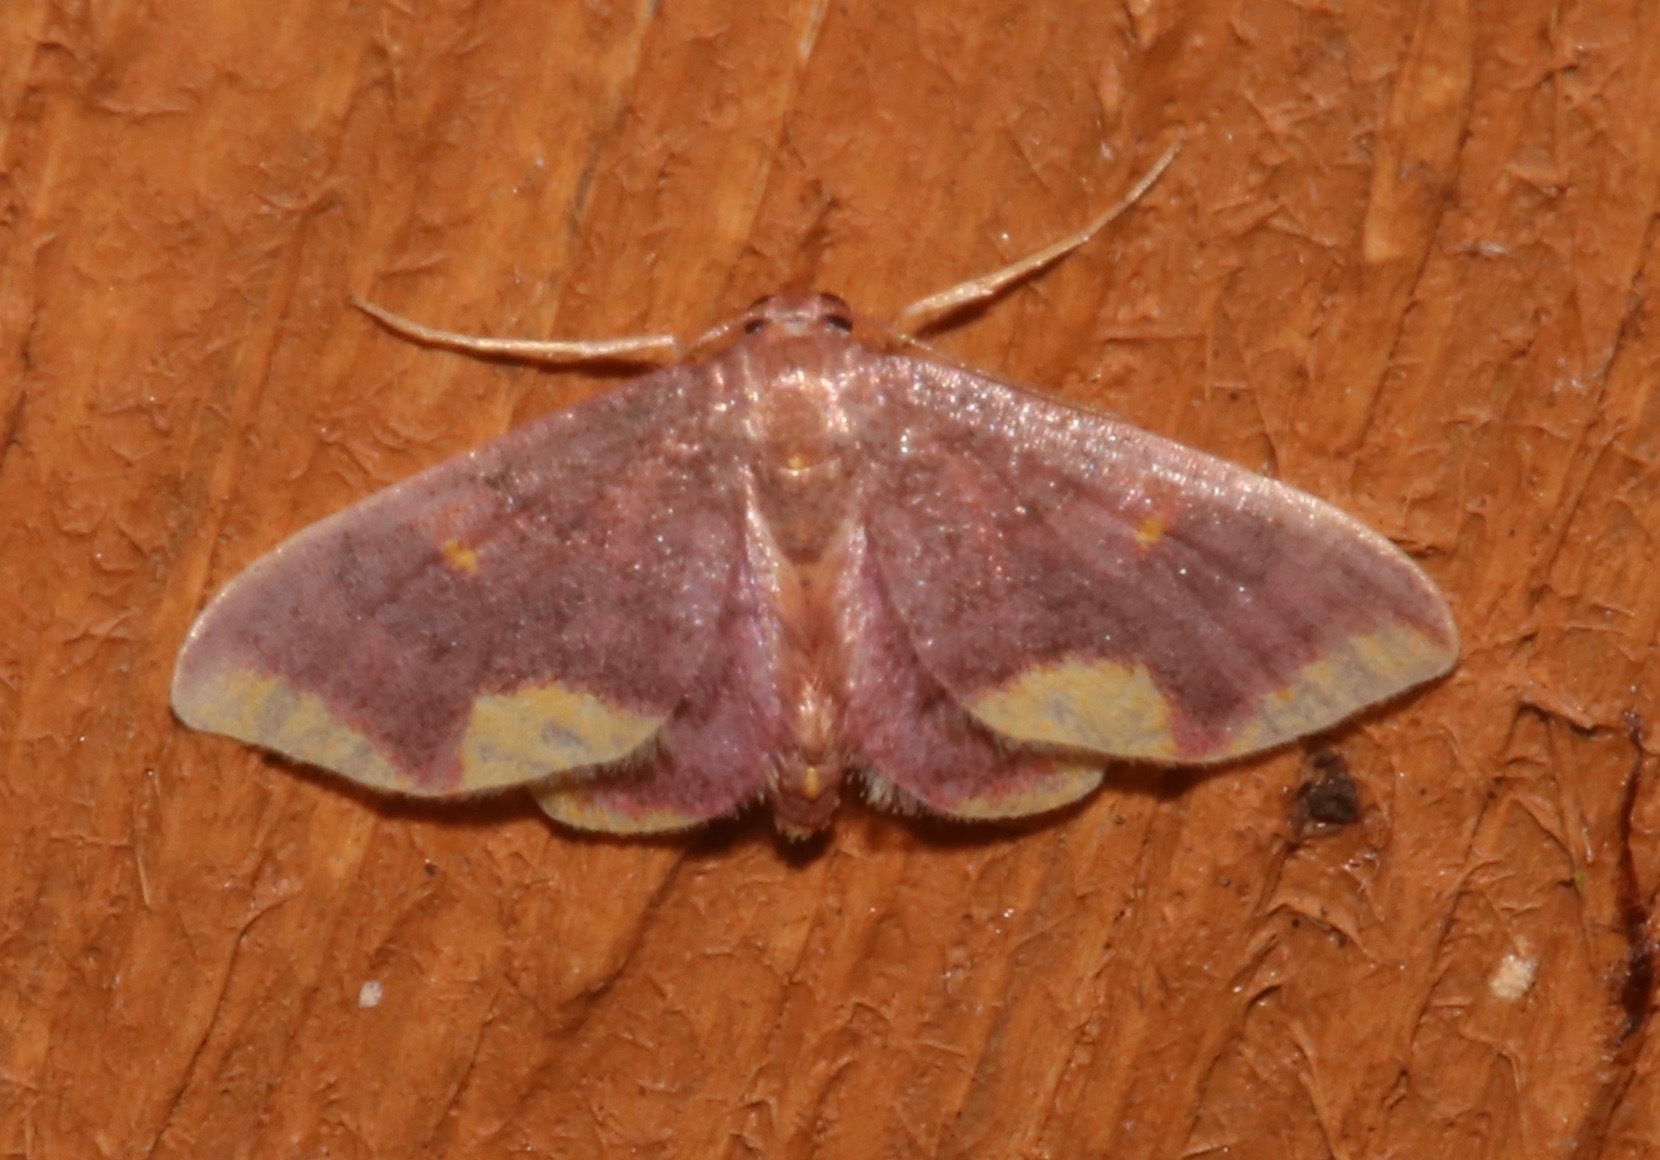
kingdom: Animalia
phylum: Arthropoda
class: Insecta
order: Lepidoptera
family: Geometridae
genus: Lophosis
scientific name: Lophosis labeculata
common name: Stained lophosis moth
